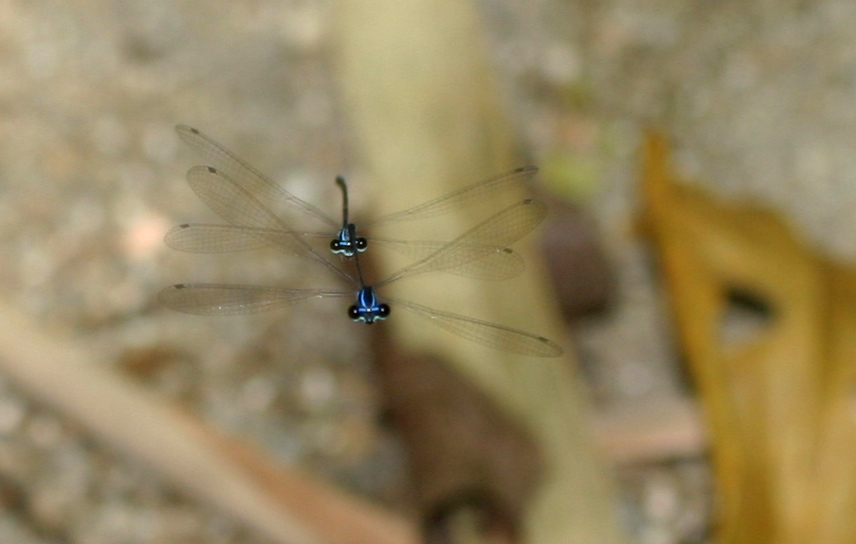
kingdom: Animalia
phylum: Arthropoda
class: Insecta
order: Odonata
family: Platycnemididae
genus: Prodasineura
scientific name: Prodasineura laidlawii
